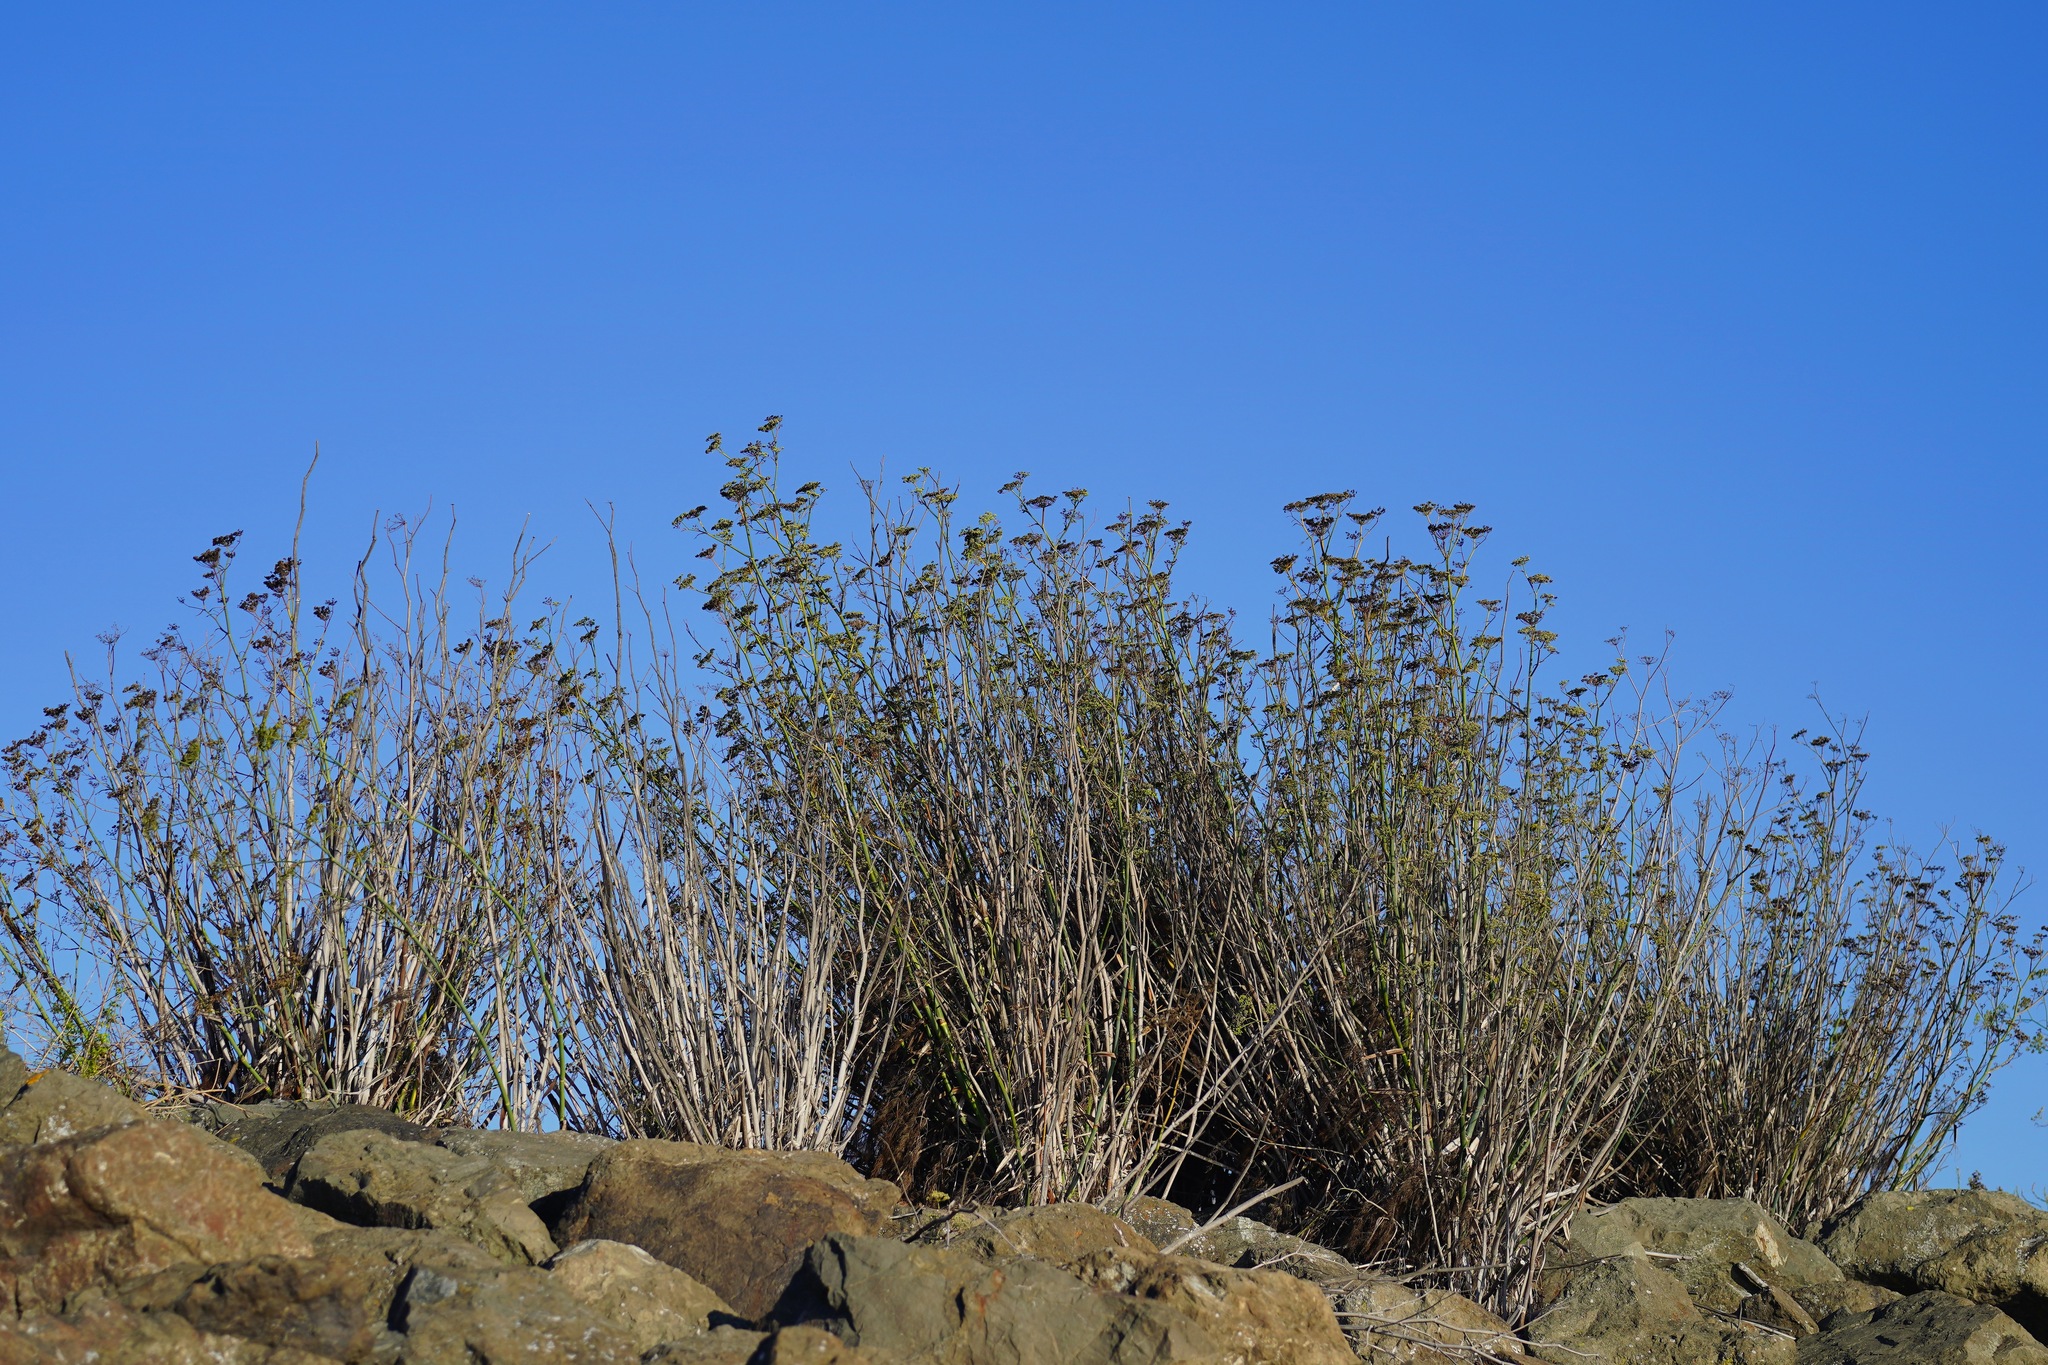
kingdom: Plantae
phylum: Tracheophyta
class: Magnoliopsida
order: Apiales
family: Apiaceae
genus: Foeniculum
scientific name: Foeniculum vulgare
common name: Fennel
